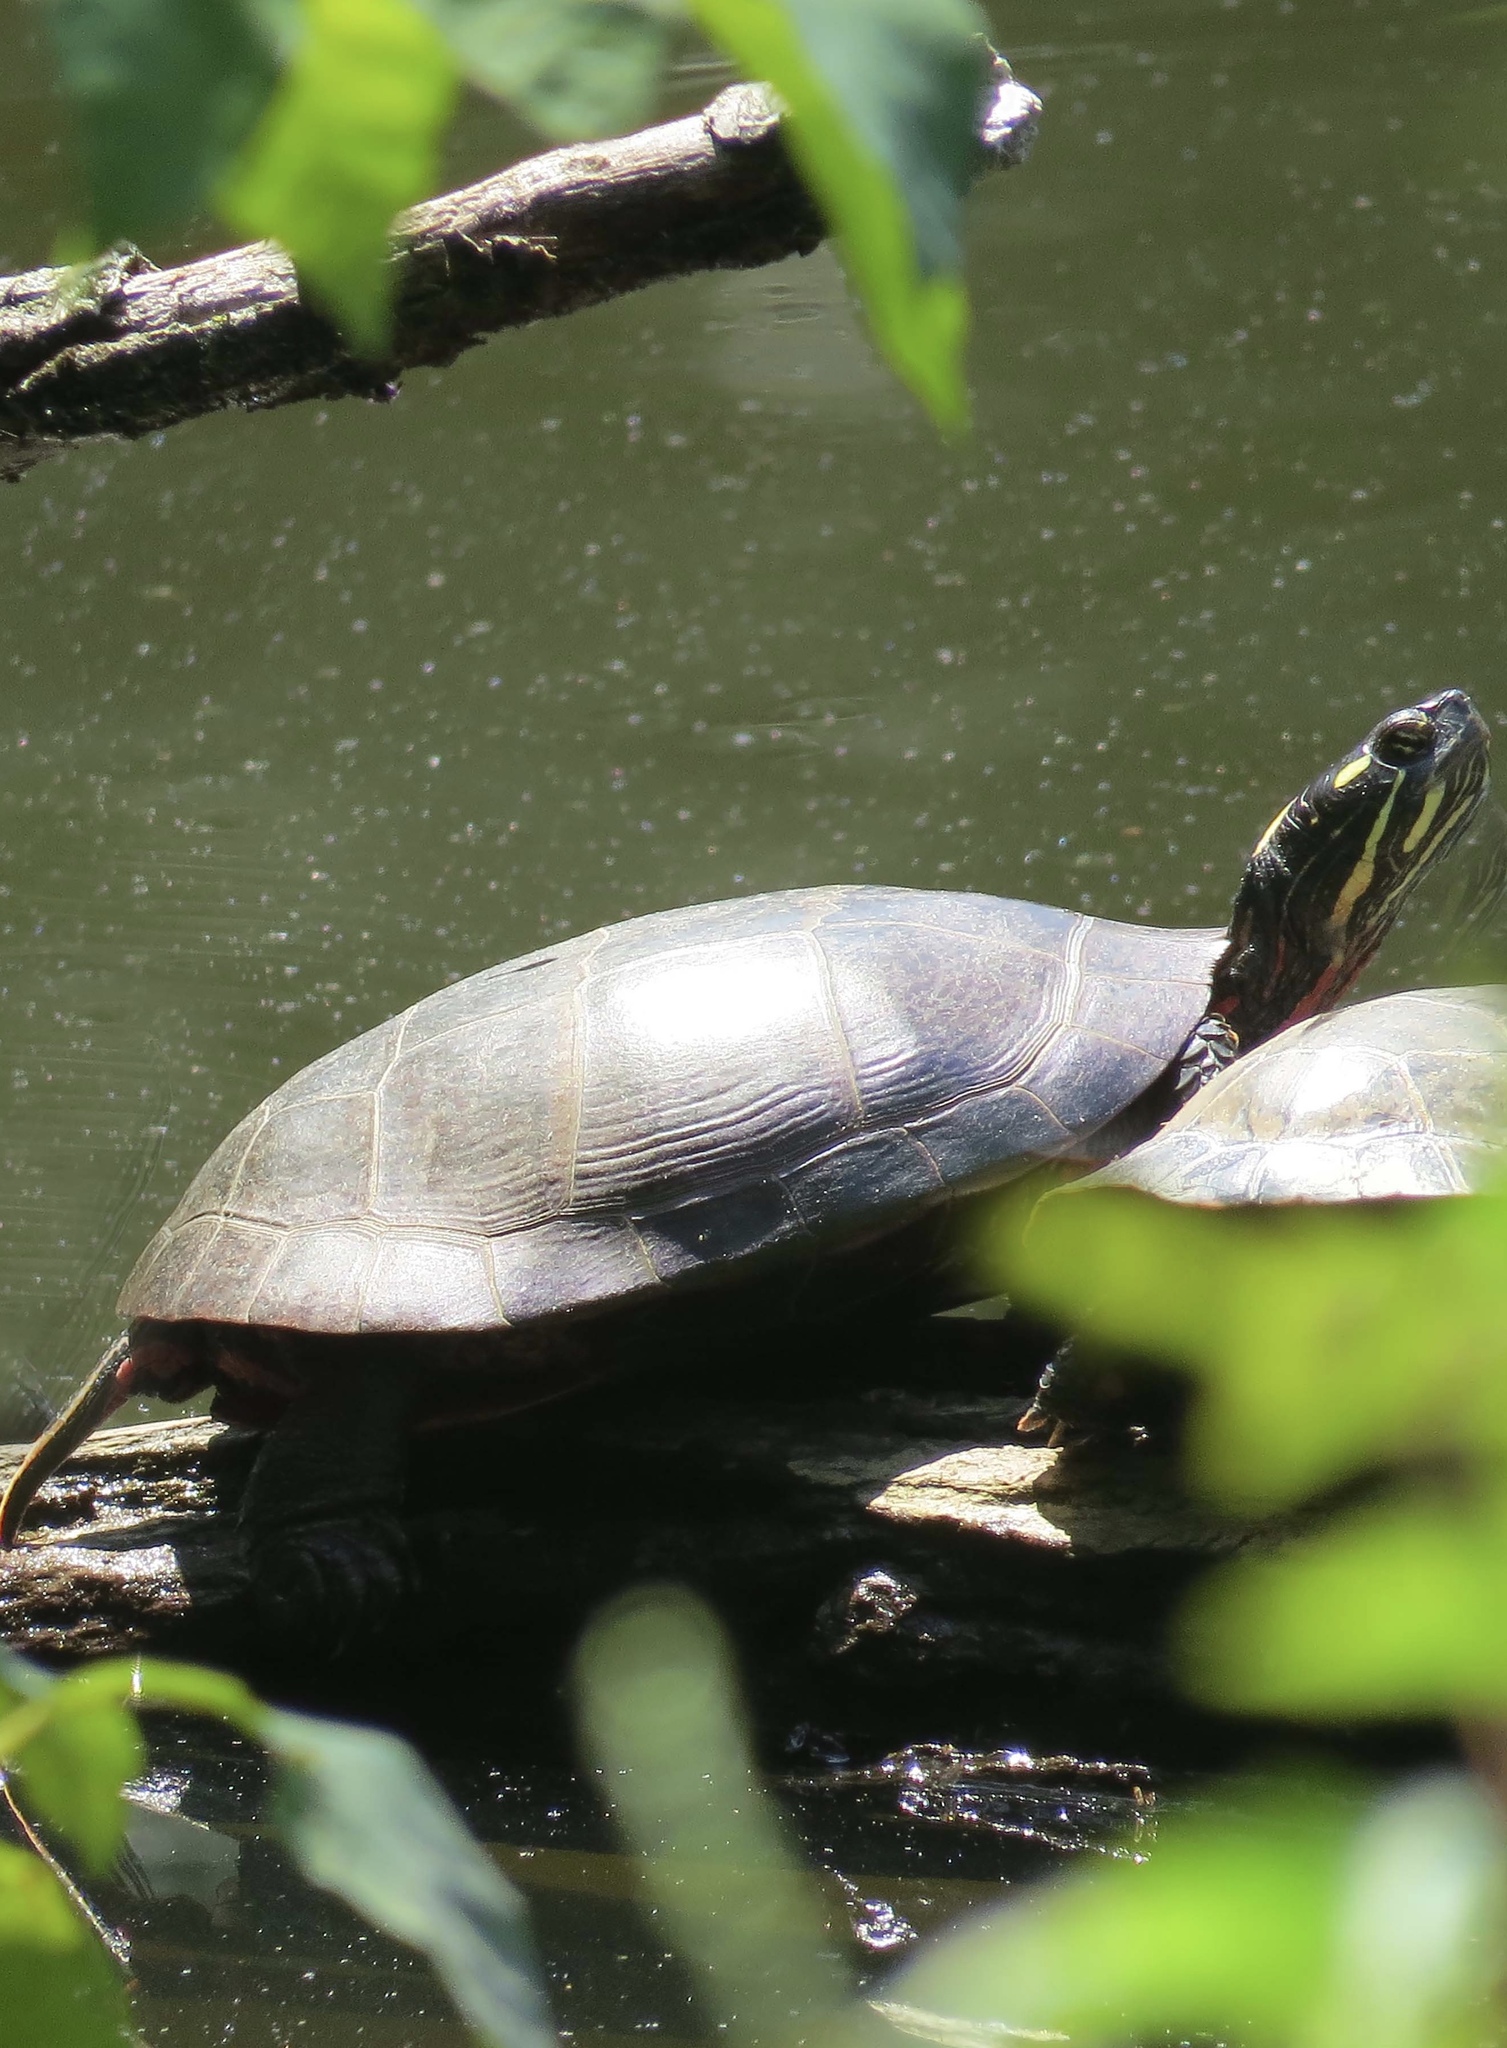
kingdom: Animalia
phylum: Chordata
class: Testudines
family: Emydidae
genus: Chrysemys
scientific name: Chrysemys picta
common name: Painted turtle
